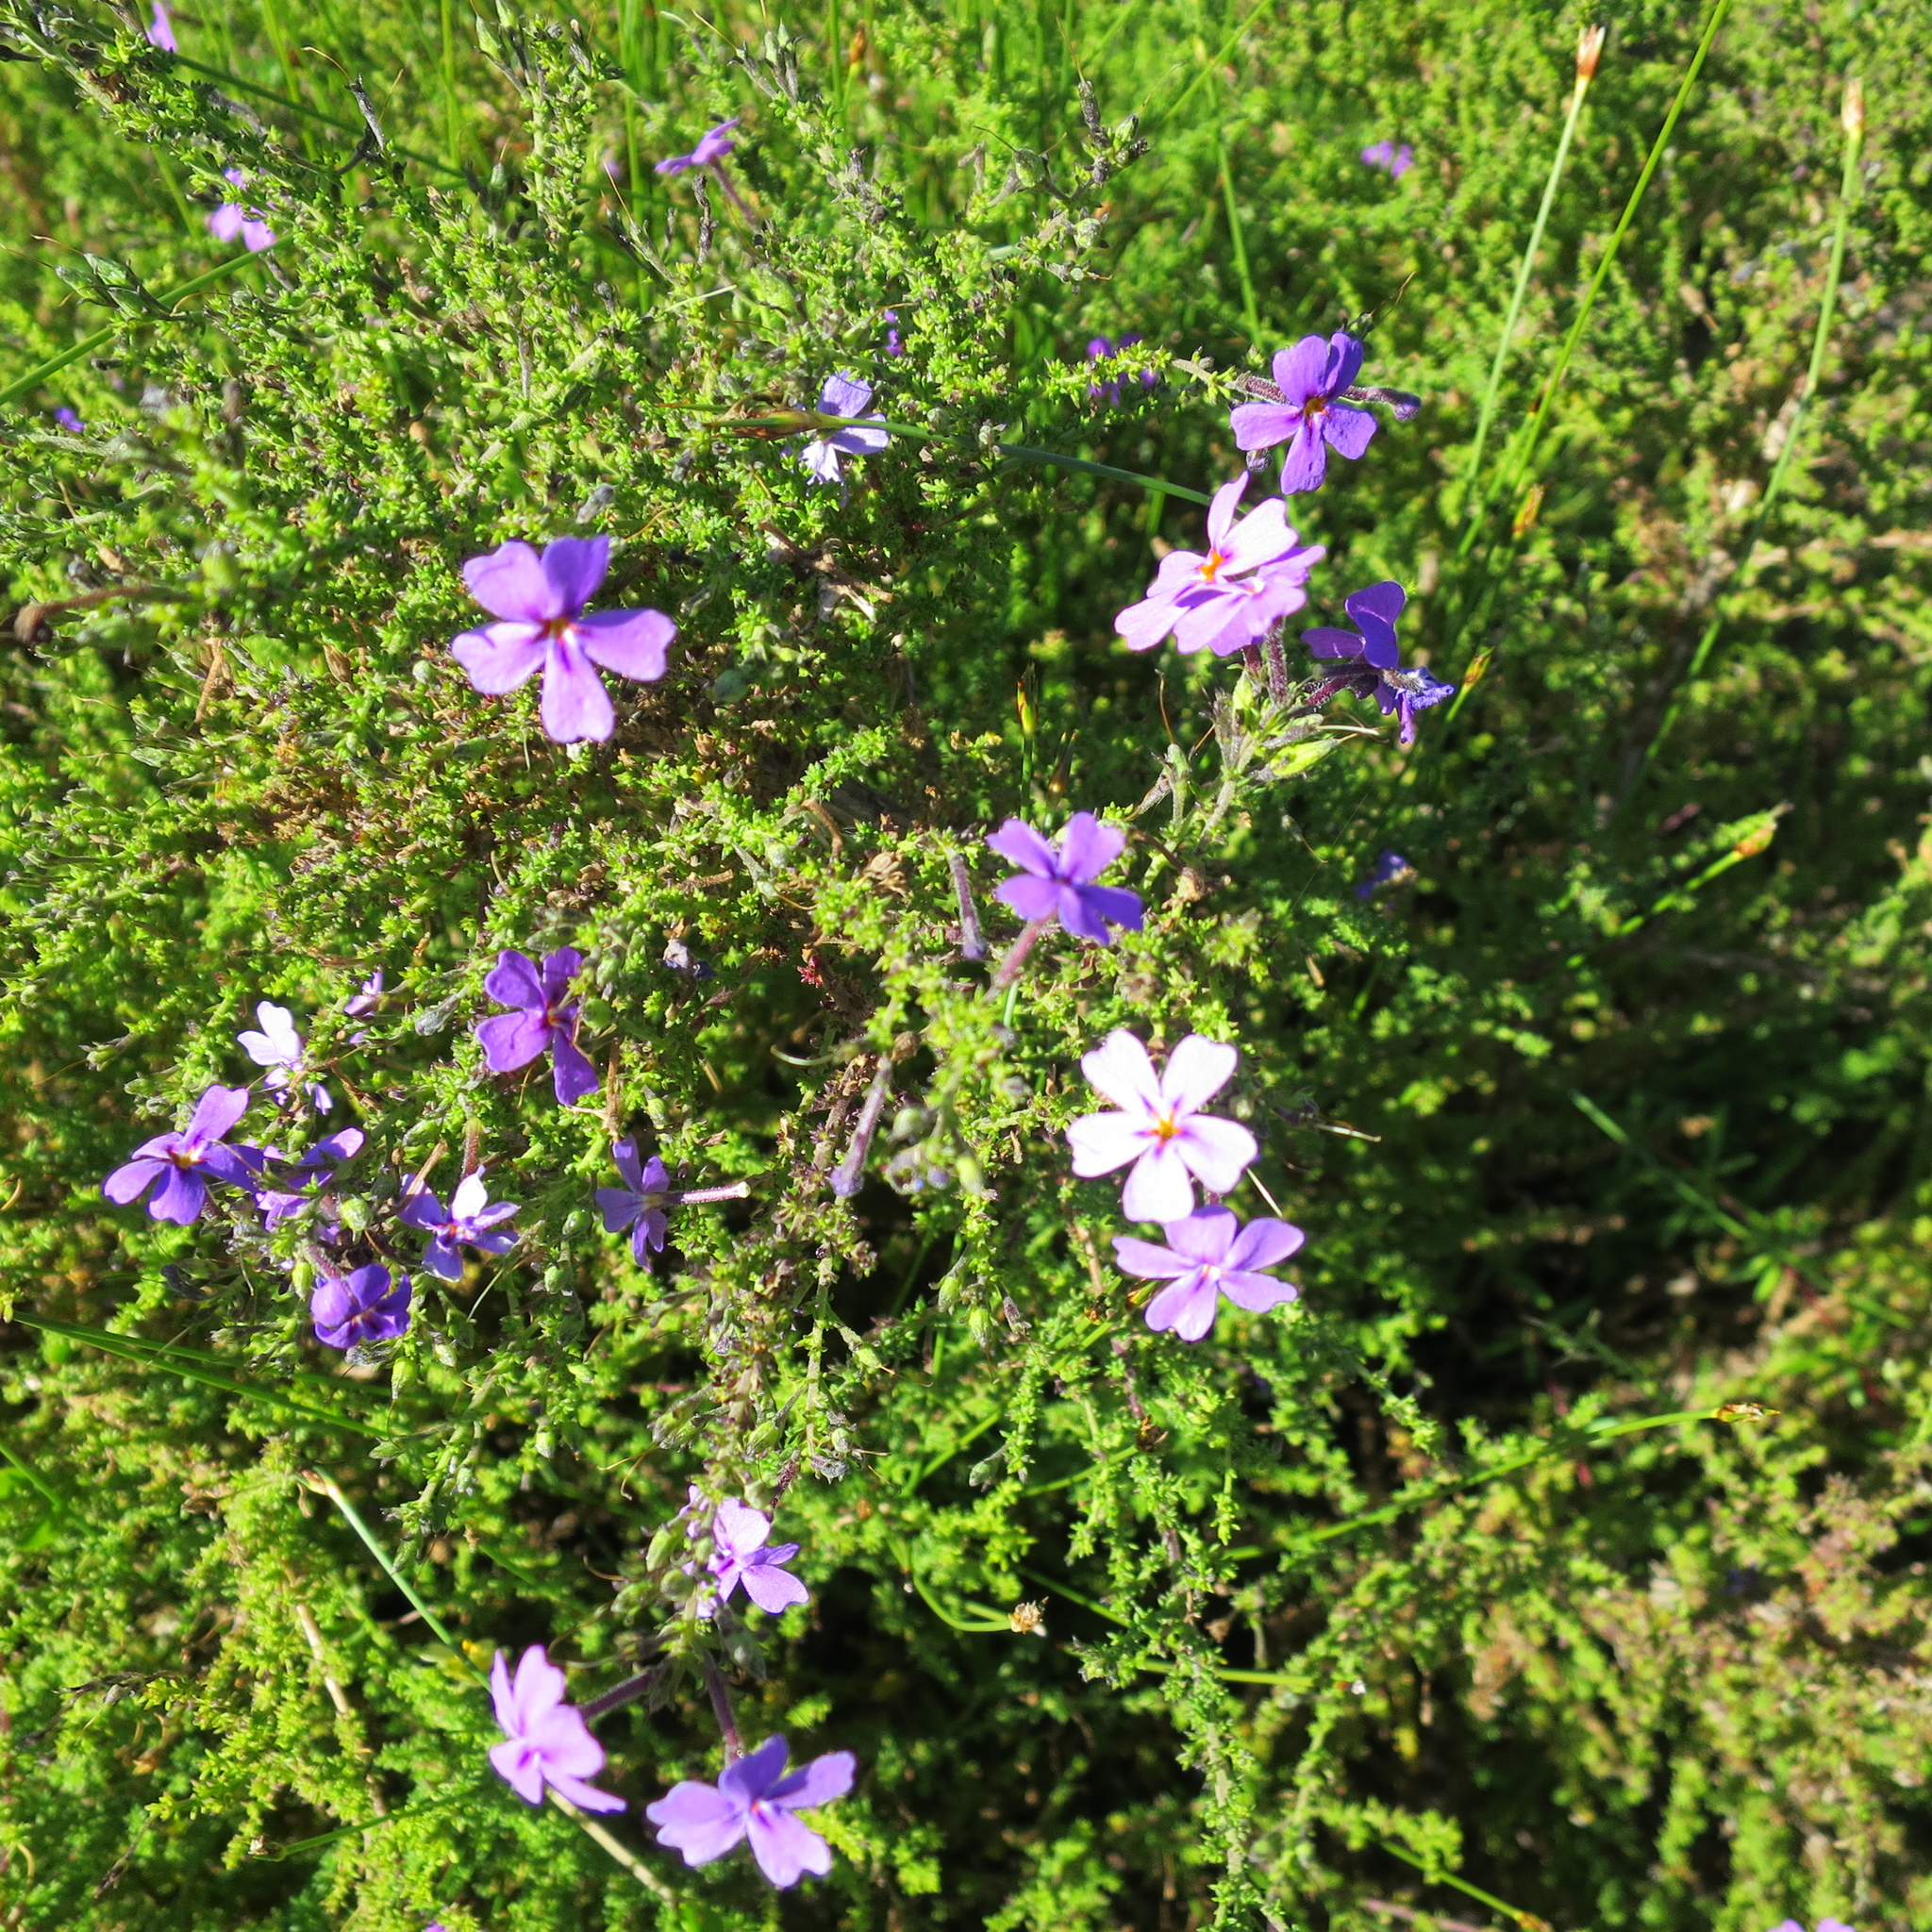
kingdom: Plantae
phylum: Tracheophyta
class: Magnoliopsida
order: Lamiales
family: Scrophulariaceae
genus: Jamesbrittenia
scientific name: Jamesbrittenia microphylla
